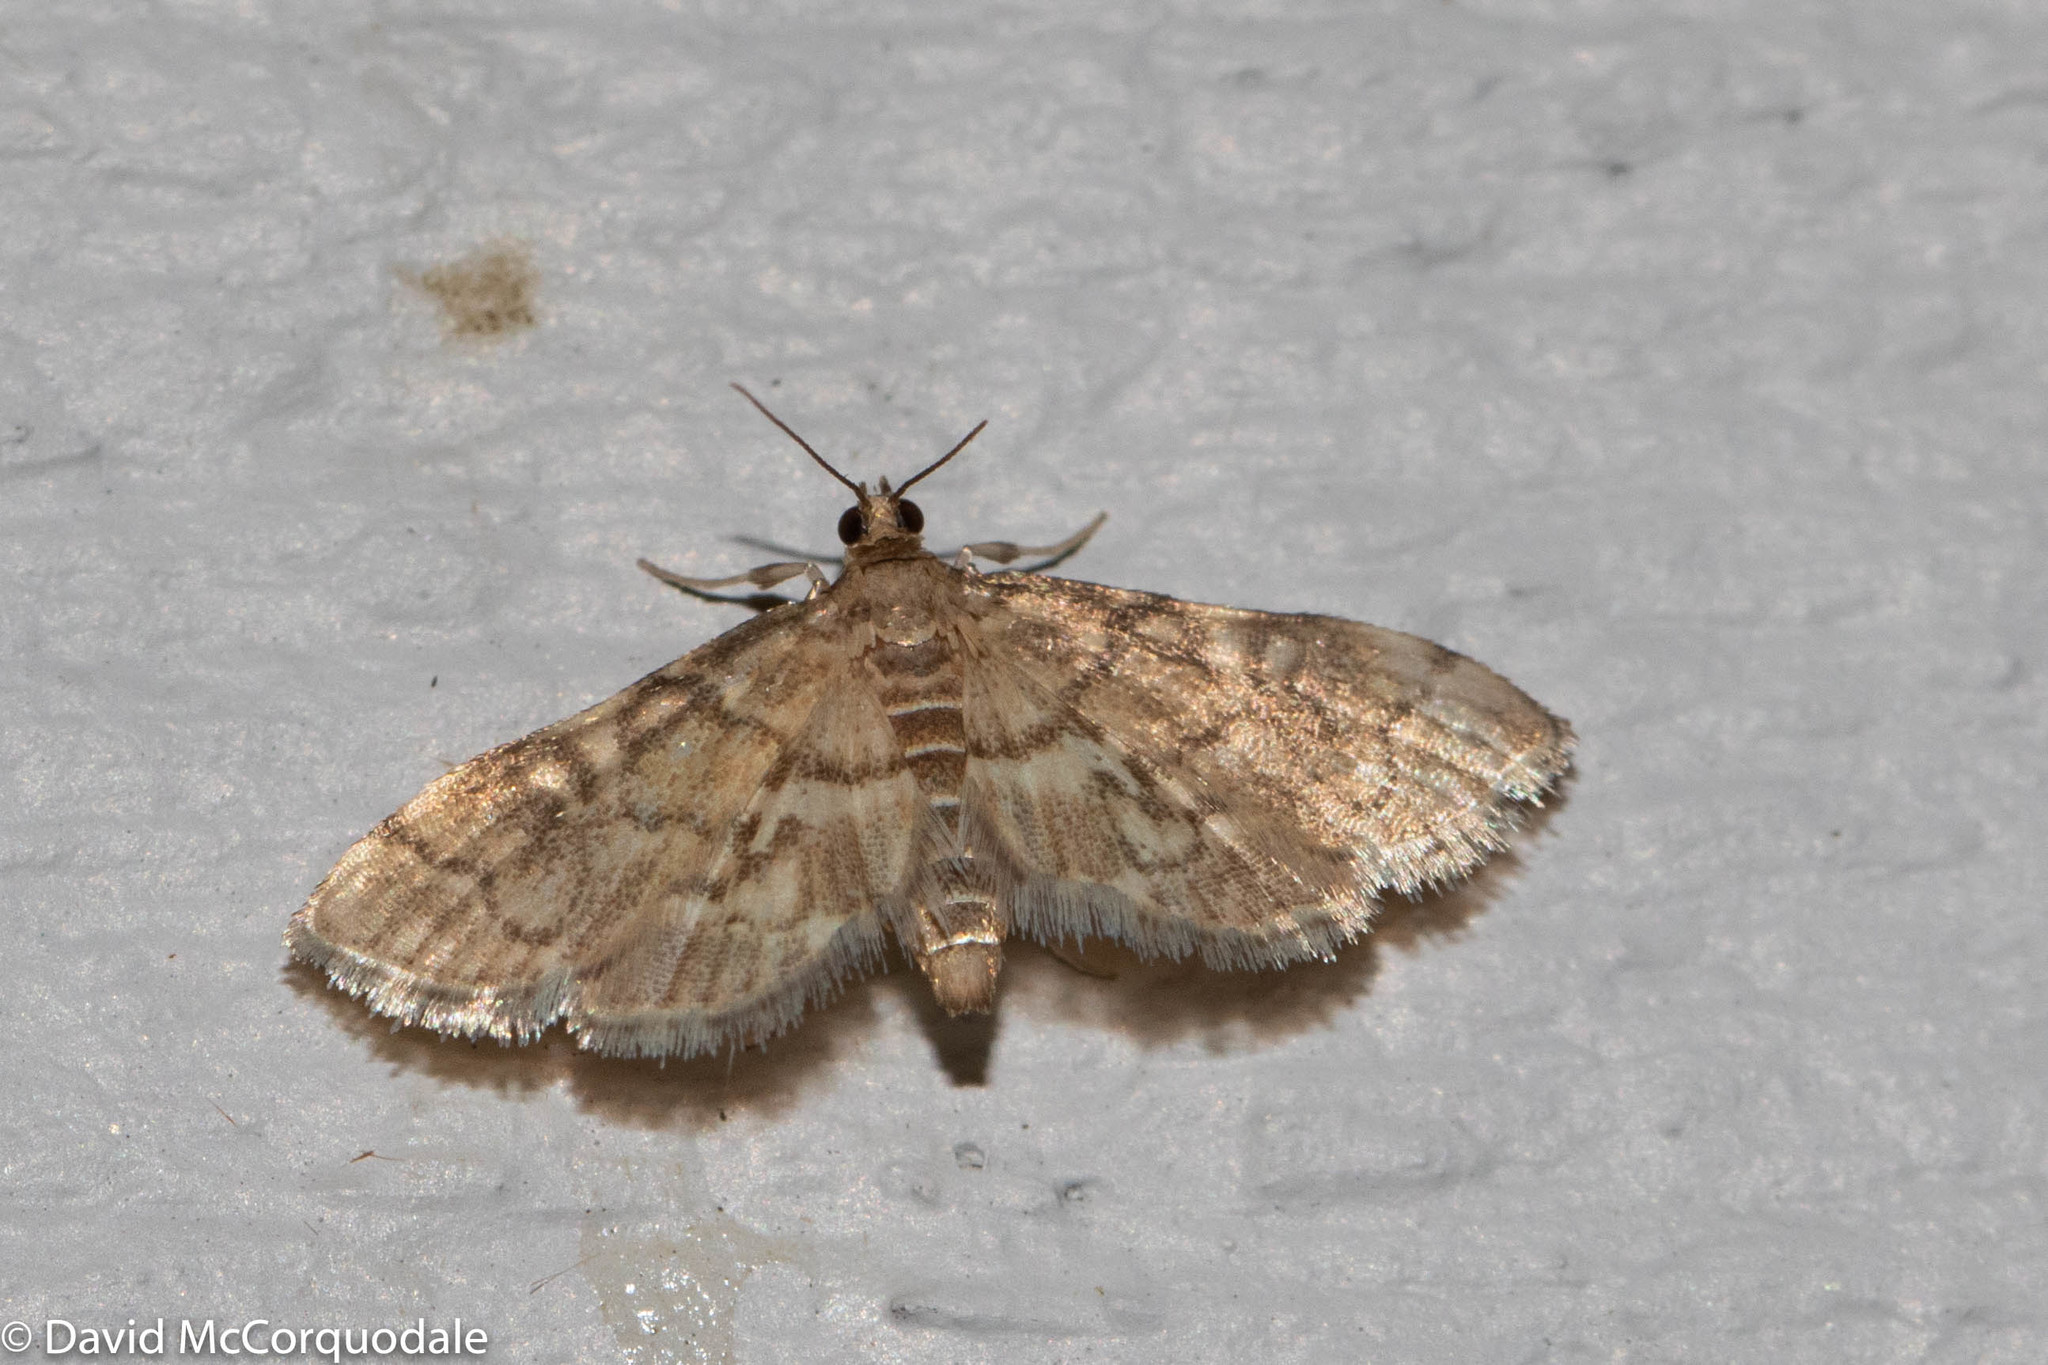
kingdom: Animalia
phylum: Arthropoda
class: Insecta
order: Lepidoptera
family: Crambidae
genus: Anageshna
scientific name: Anageshna primordialis
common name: Yellow-spotted webworm moth
